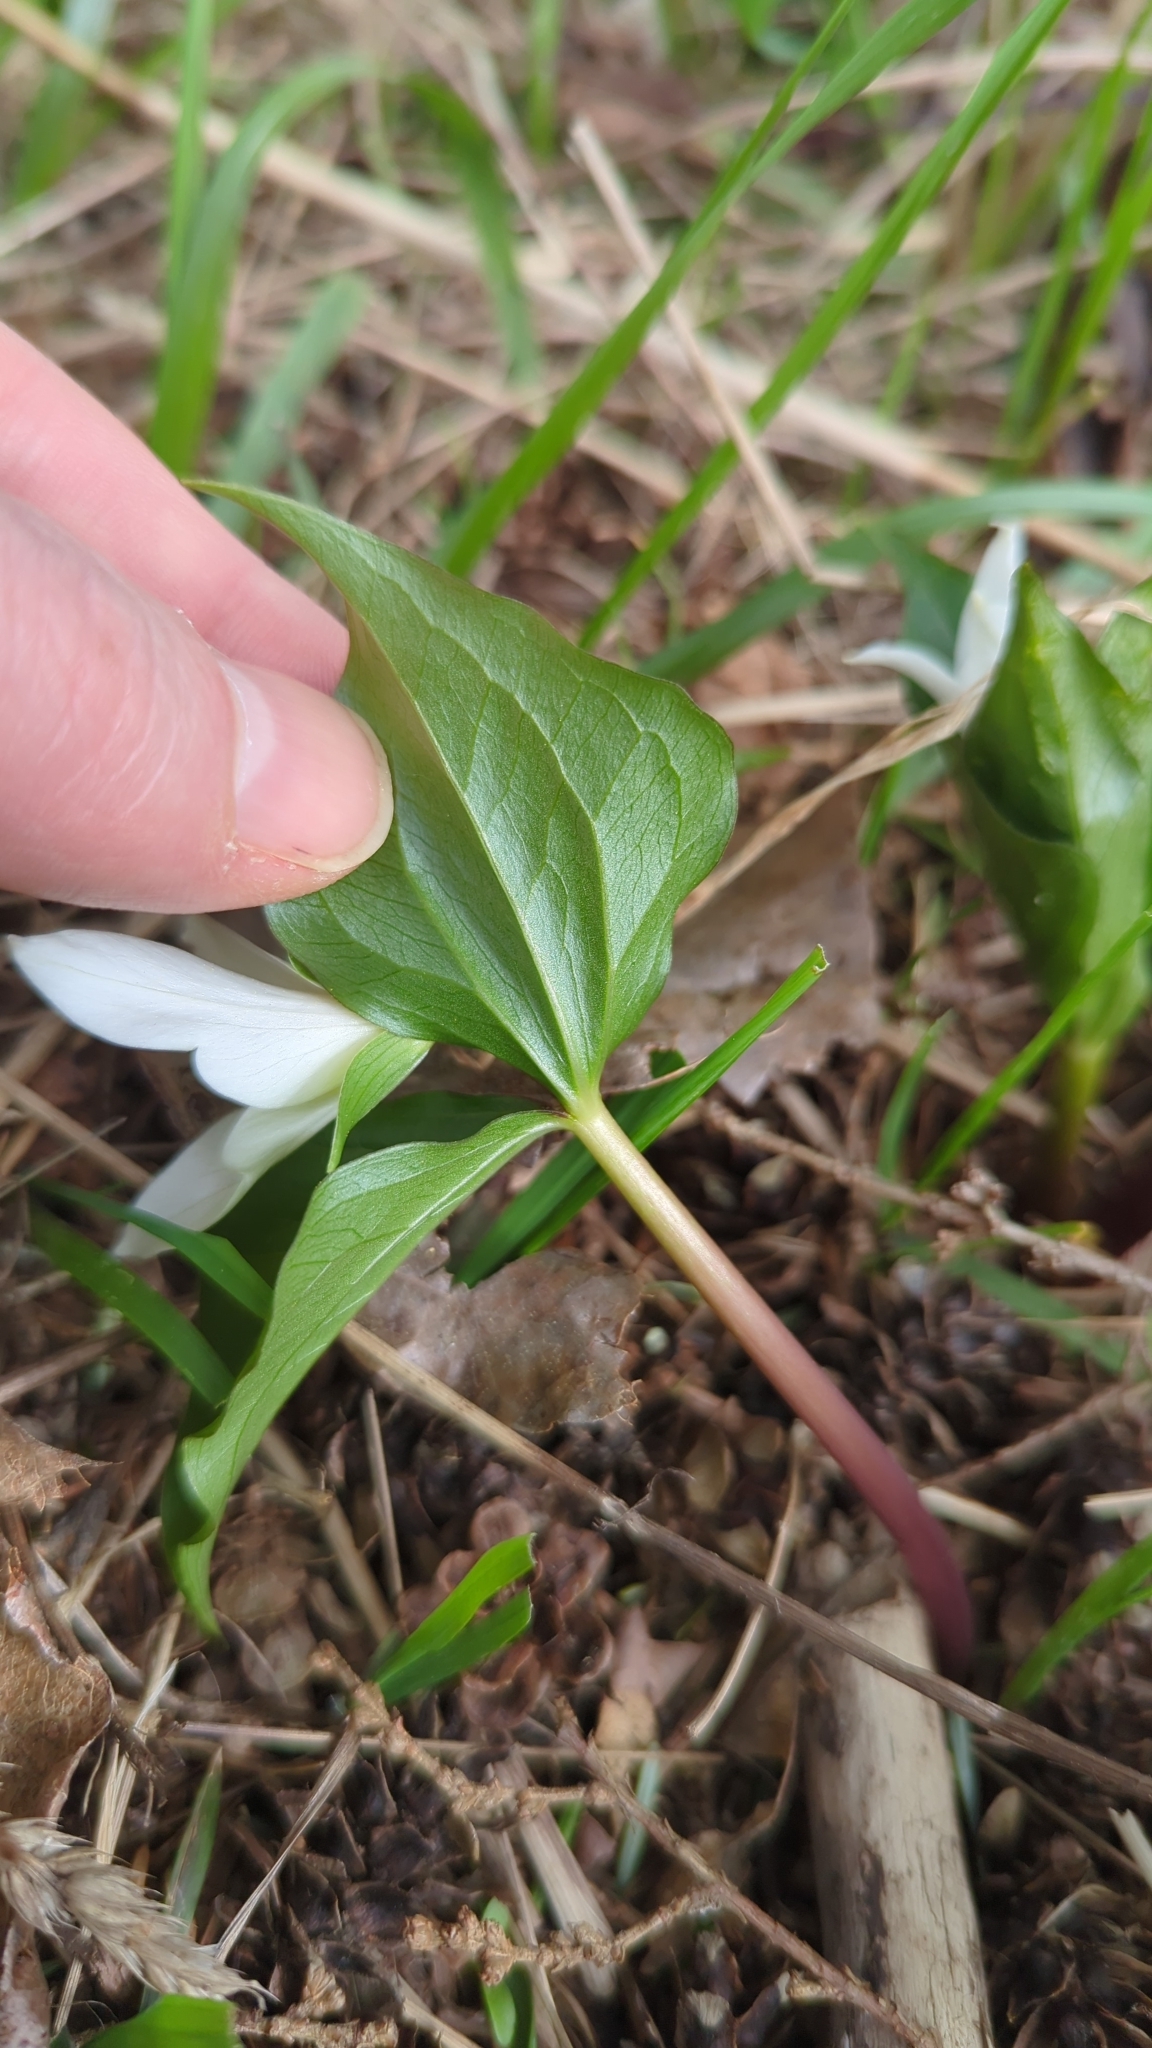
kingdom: Plantae
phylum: Tracheophyta
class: Liliopsida
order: Liliales
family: Melanthiaceae
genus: Trillium
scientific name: Trillium ovatum
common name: Pacific trillium
